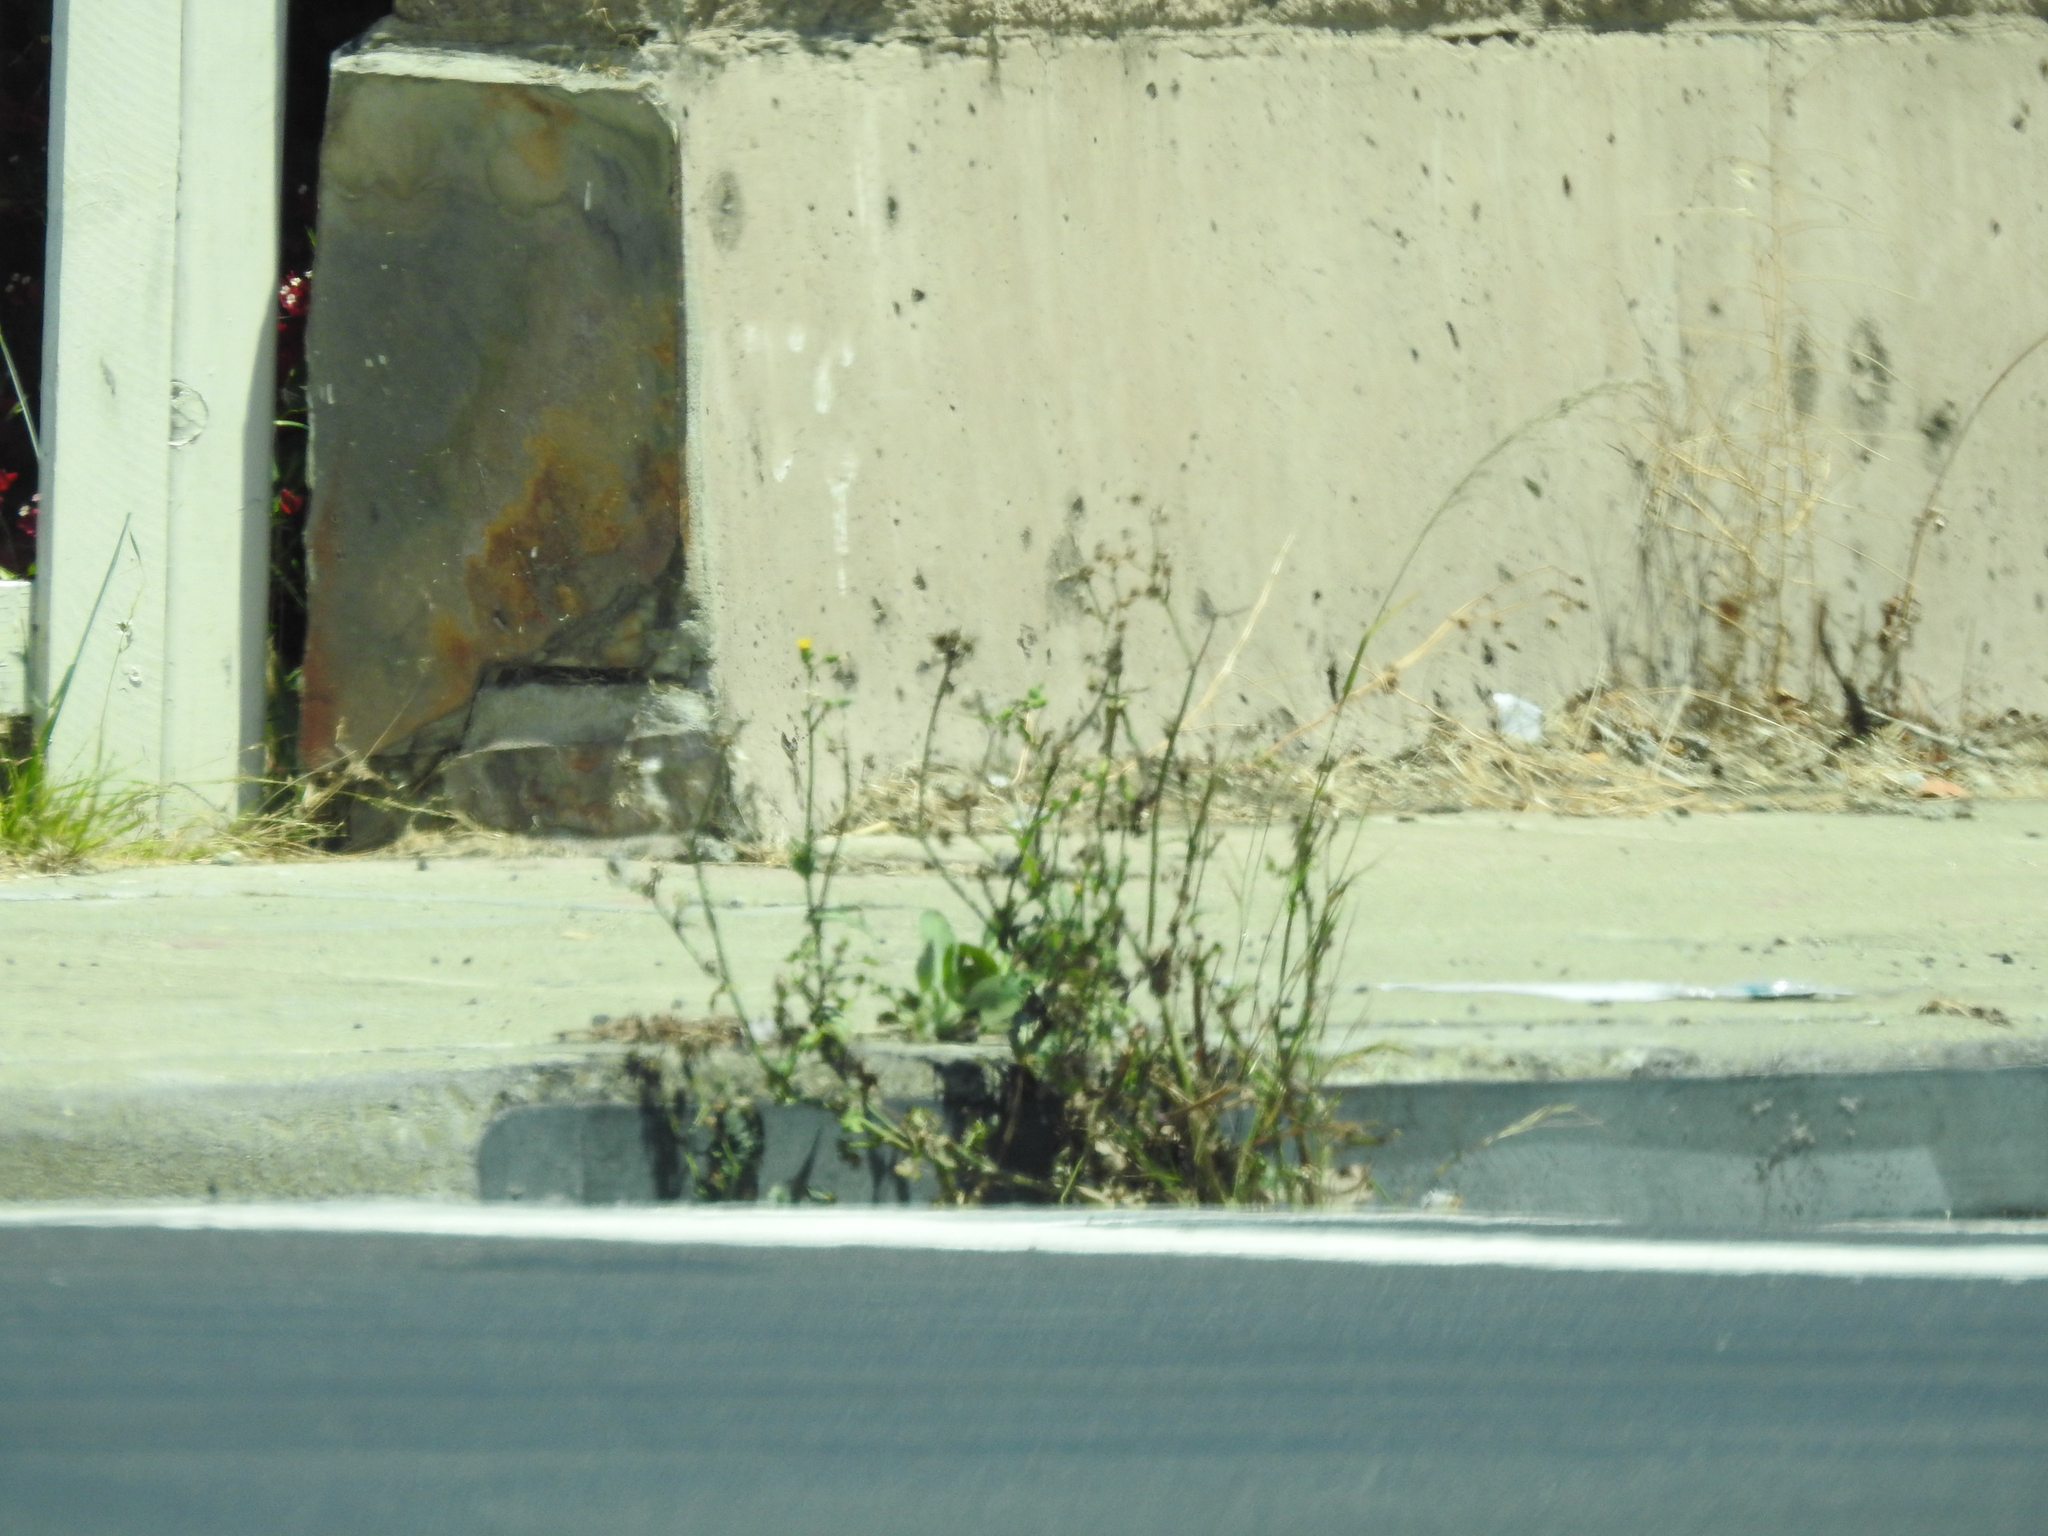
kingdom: Plantae
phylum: Tracheophyta
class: Magnoliopsida
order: Asterales
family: Asteraceae
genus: Helminthotheca
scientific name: Helminthotheca echioides
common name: Ox-tongue
